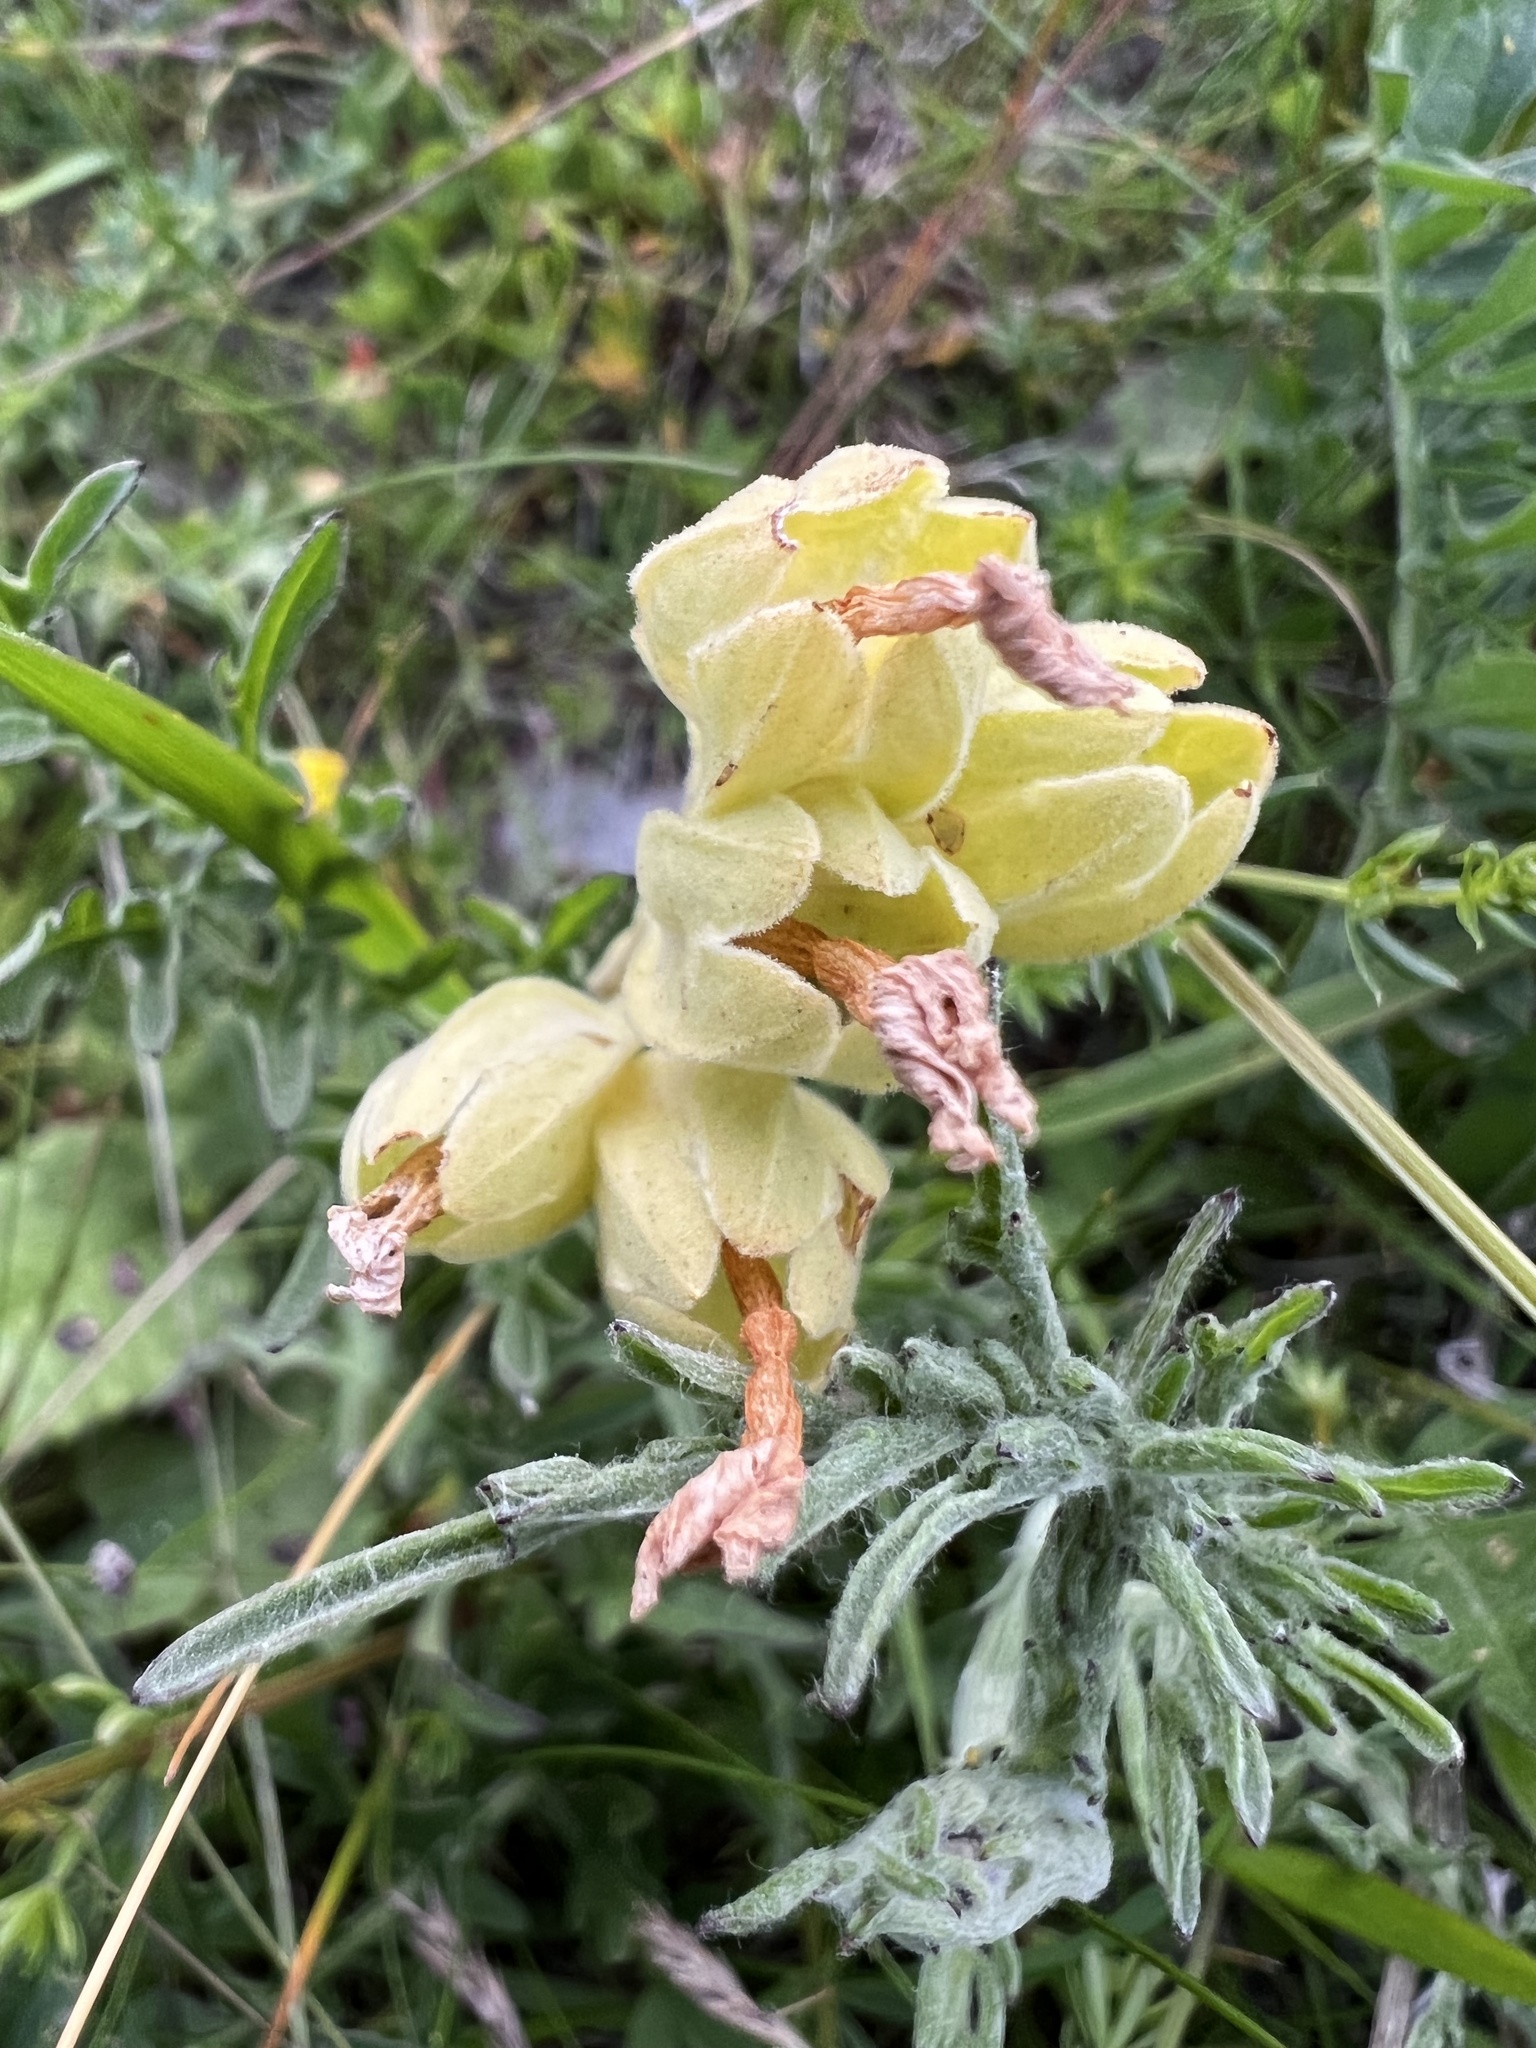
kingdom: Plantae
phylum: Tracheophyta
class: Magnoliopsida
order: Ericales
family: Primulaceae
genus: Primula
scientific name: Primula veris
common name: Cowslip
